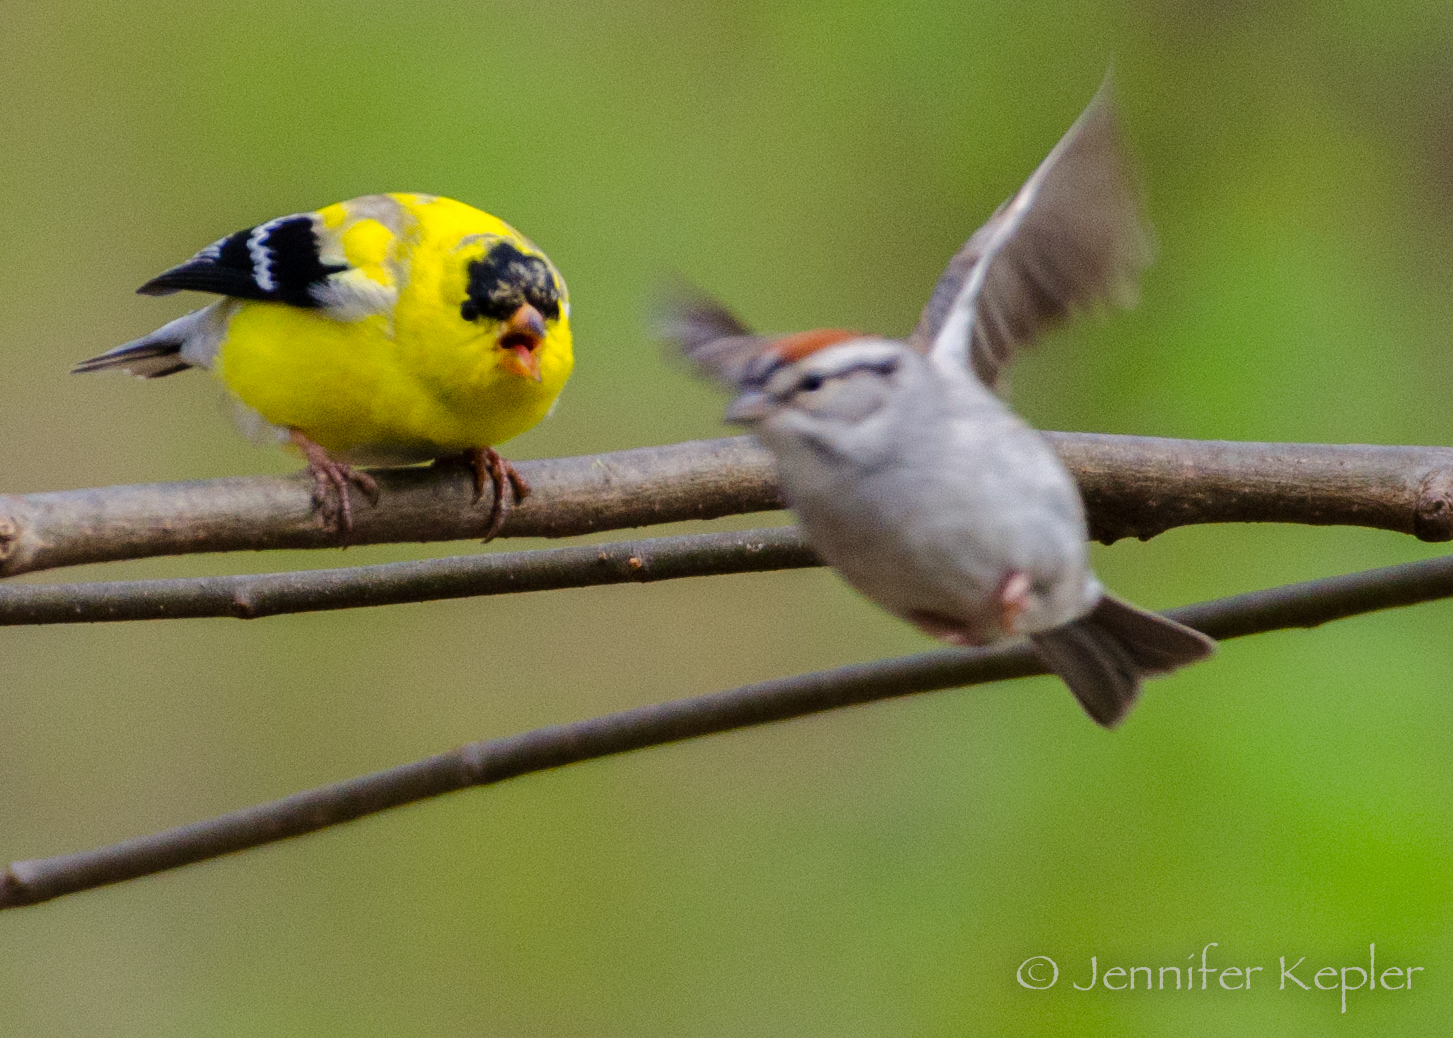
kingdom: Animalia
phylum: Chordata
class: Aves
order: Passeriformes
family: Passerellidae
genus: Spizella
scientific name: Spizella passerina
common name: Chipping sparrow
